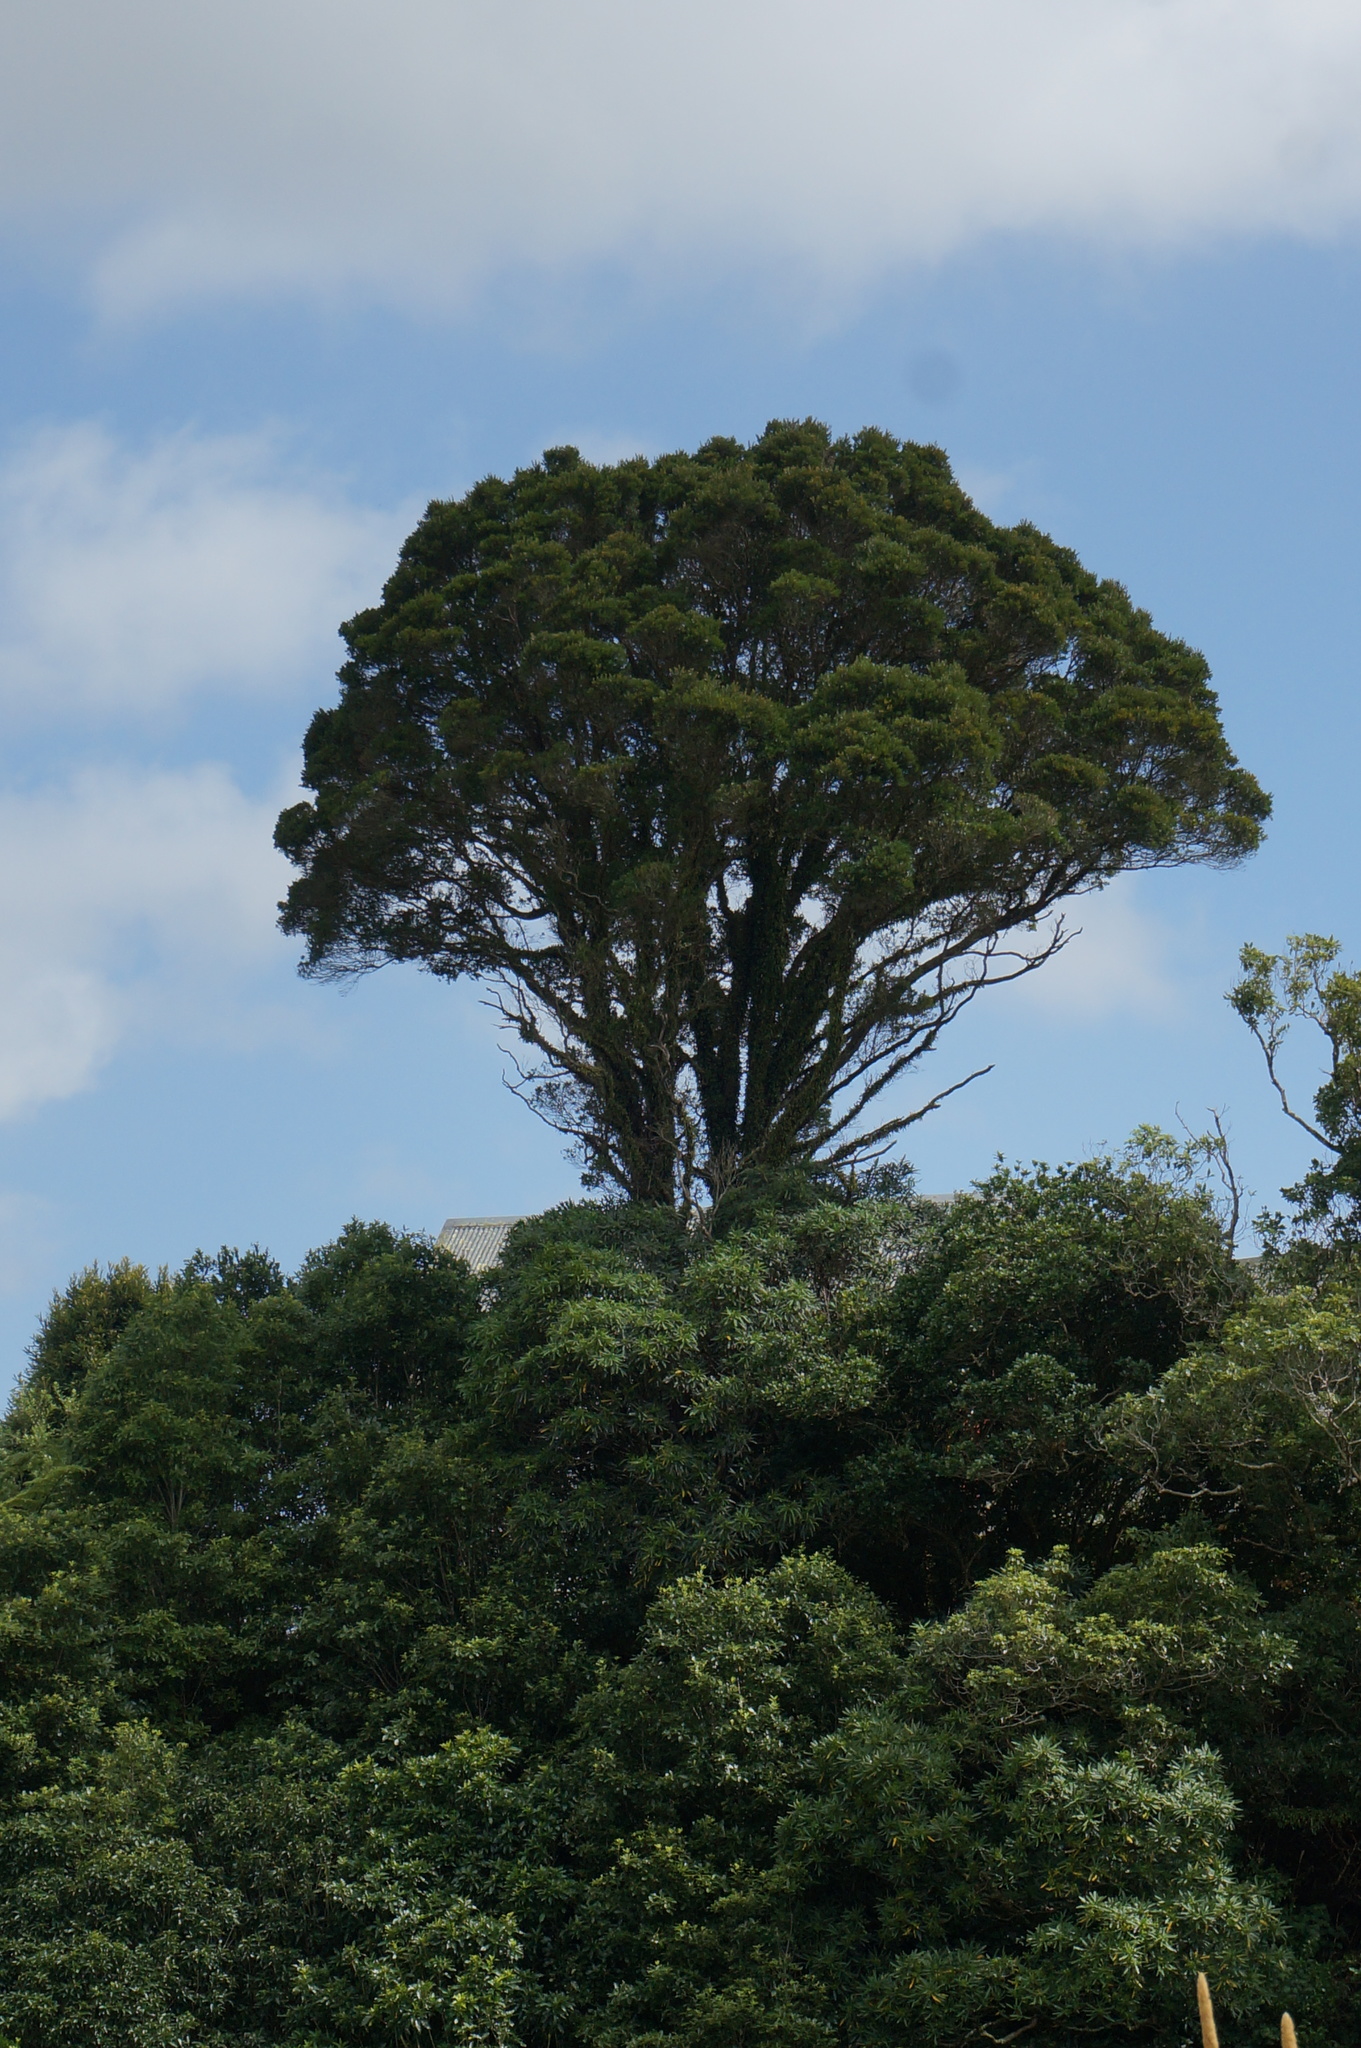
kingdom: Plantae
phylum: Tracheophyta
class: Magnoliopsida
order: Myrtales
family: Myrtaceae
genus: Metrosideros
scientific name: Metrosideros robusta
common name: Northern rata
